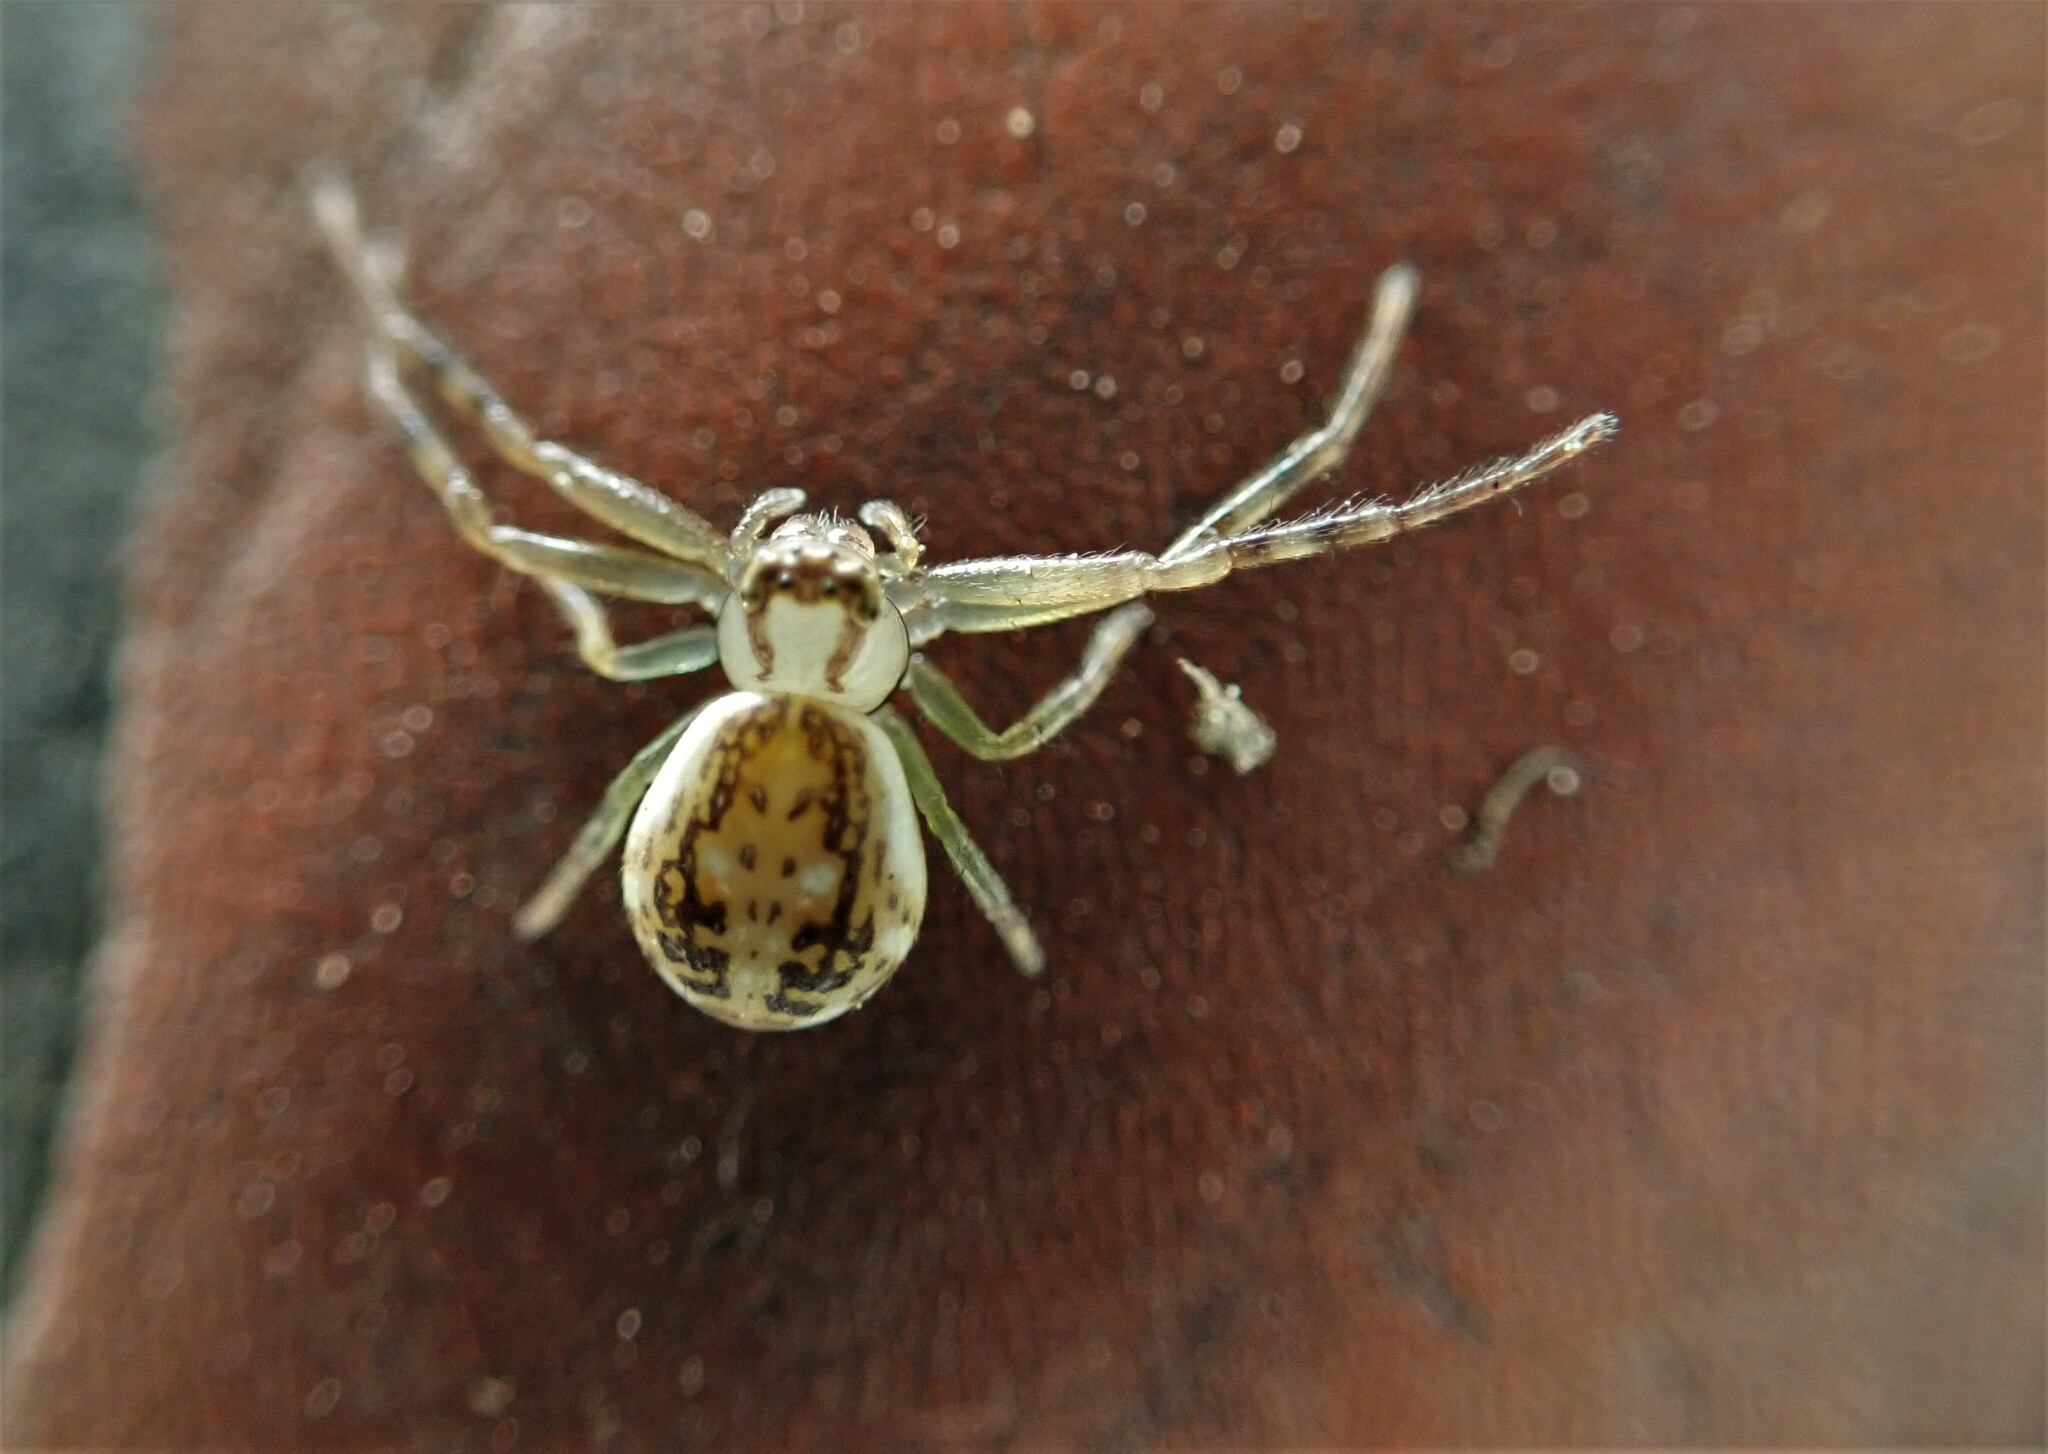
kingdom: Animalia
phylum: Arthropoda
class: Arachnida
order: Araneae
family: Thomisidae
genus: Diaea
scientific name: Diaea ambara
